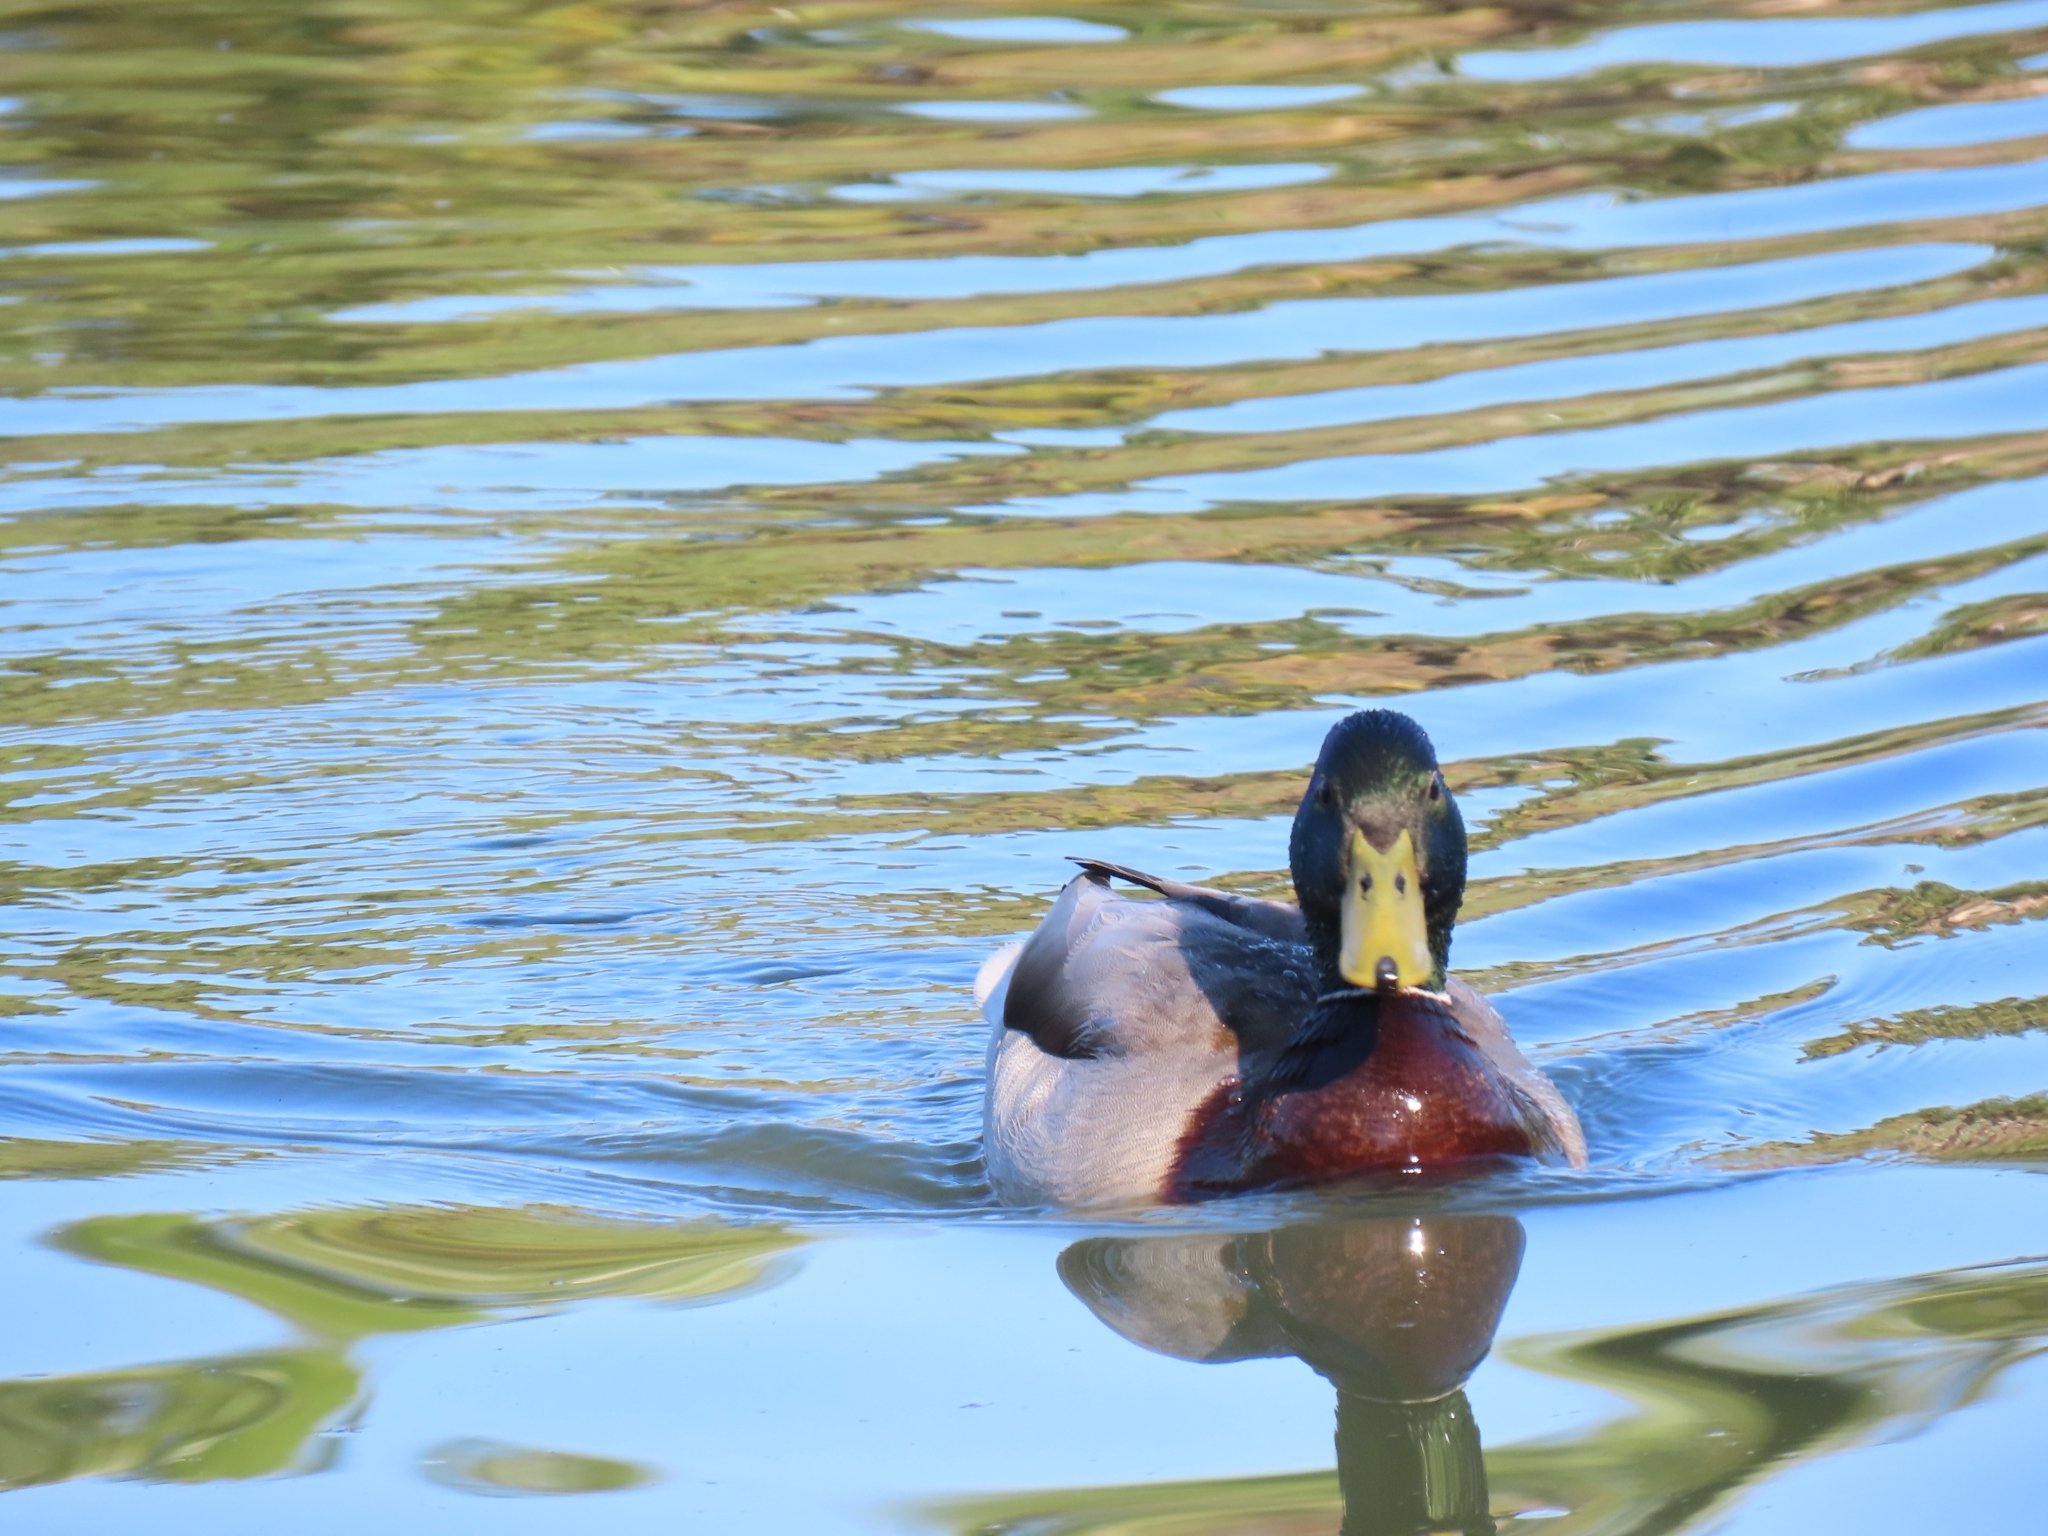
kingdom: Animalia
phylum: Chordata
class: Aves
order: Anseriformes
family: Anatidae
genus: Anas
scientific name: Anas platyrhynchos
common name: Mallard
